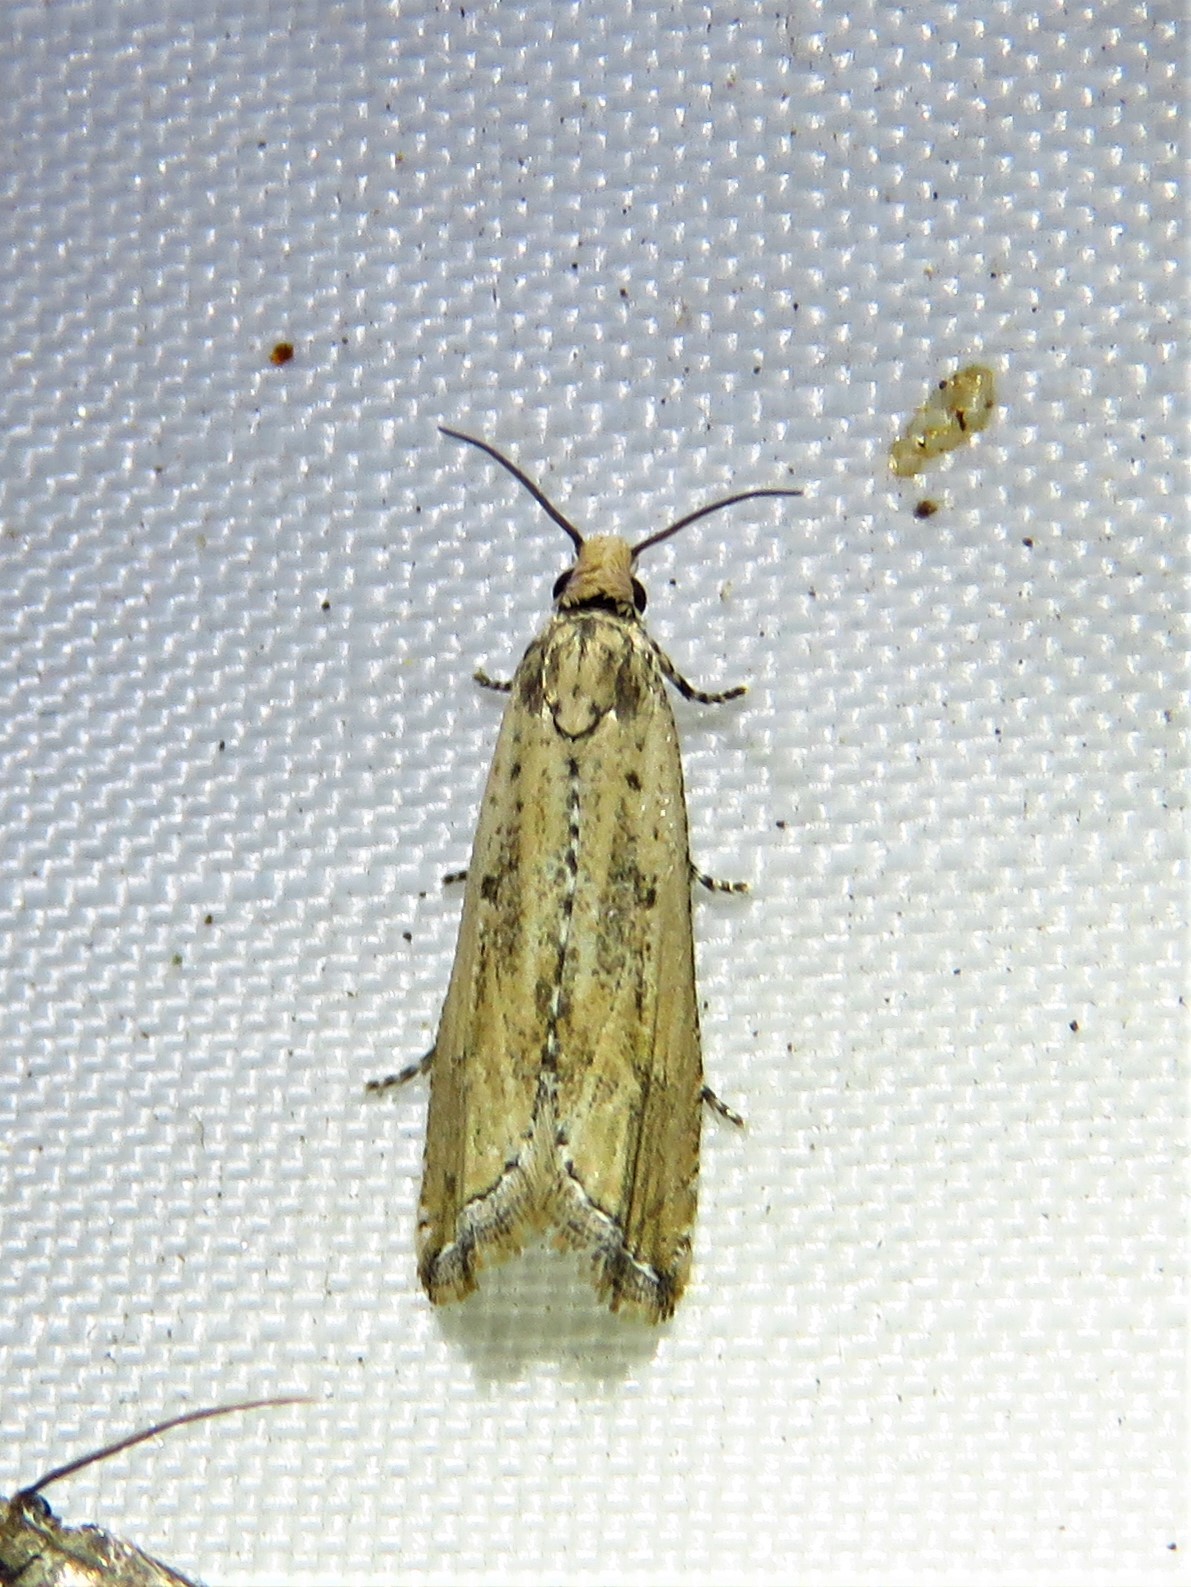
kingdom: Animalia
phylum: Arthropoda
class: Insecta
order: Lepidoptera
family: Tortricidae
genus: Bactra
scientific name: Bactra verutana
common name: Javelin moth
